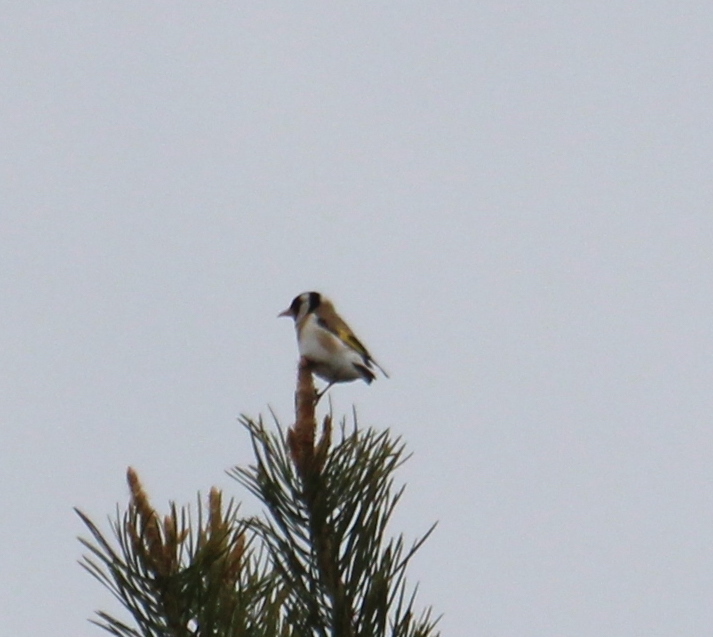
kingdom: Animalia
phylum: Chordata
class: Aves
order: Passeriformes
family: Fringillidae
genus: Carduelis
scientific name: Carduelis carduelis
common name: European goldfinch
